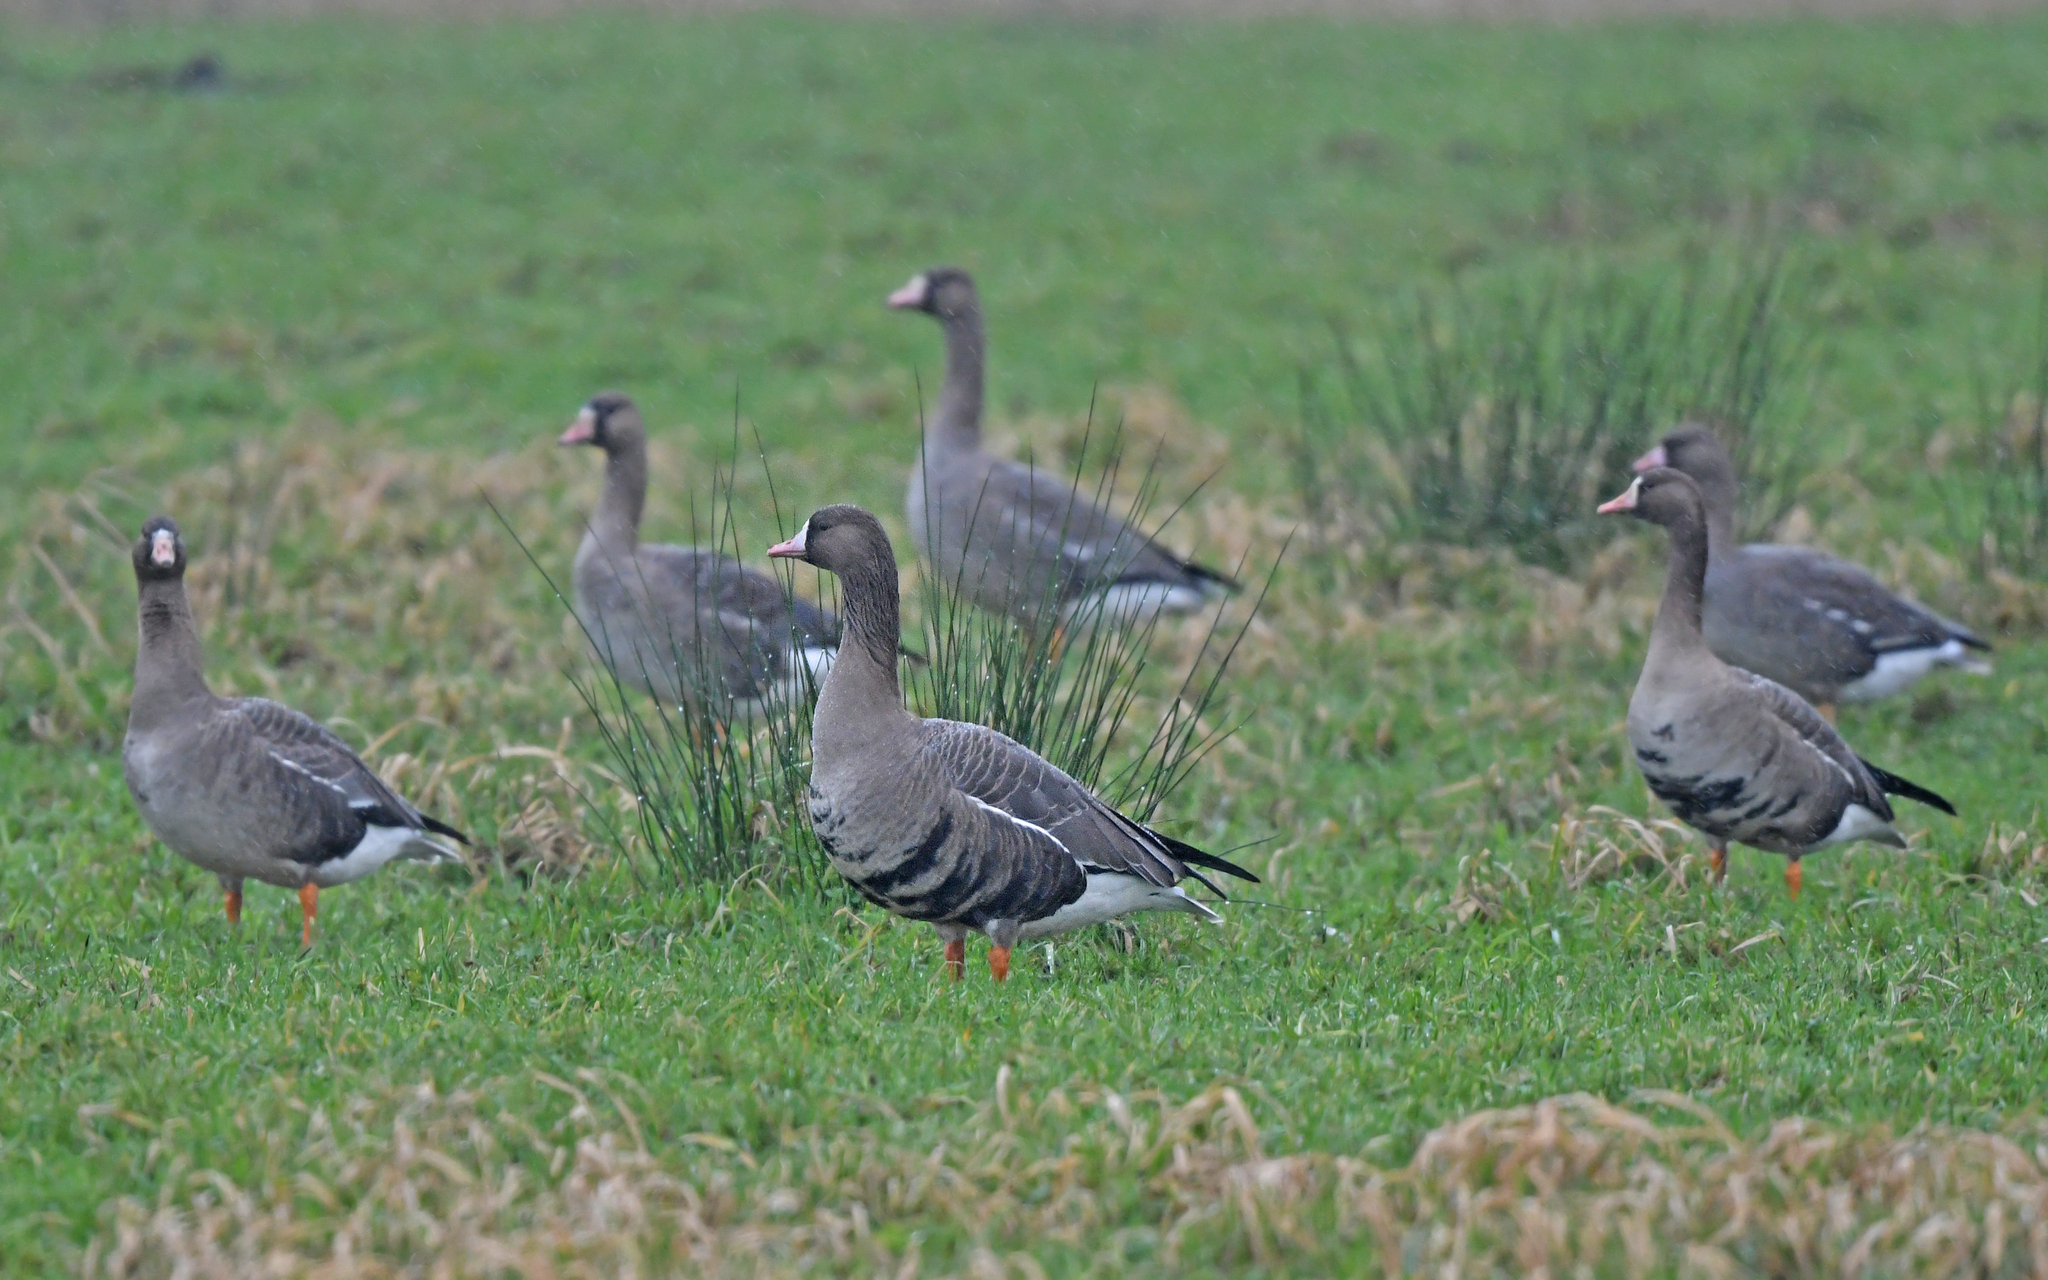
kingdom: Animalia
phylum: Chordata
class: Aves
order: Anseriformes
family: Anatidae
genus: Anser
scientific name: Anser albifrons
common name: Greater white-fronted goose
